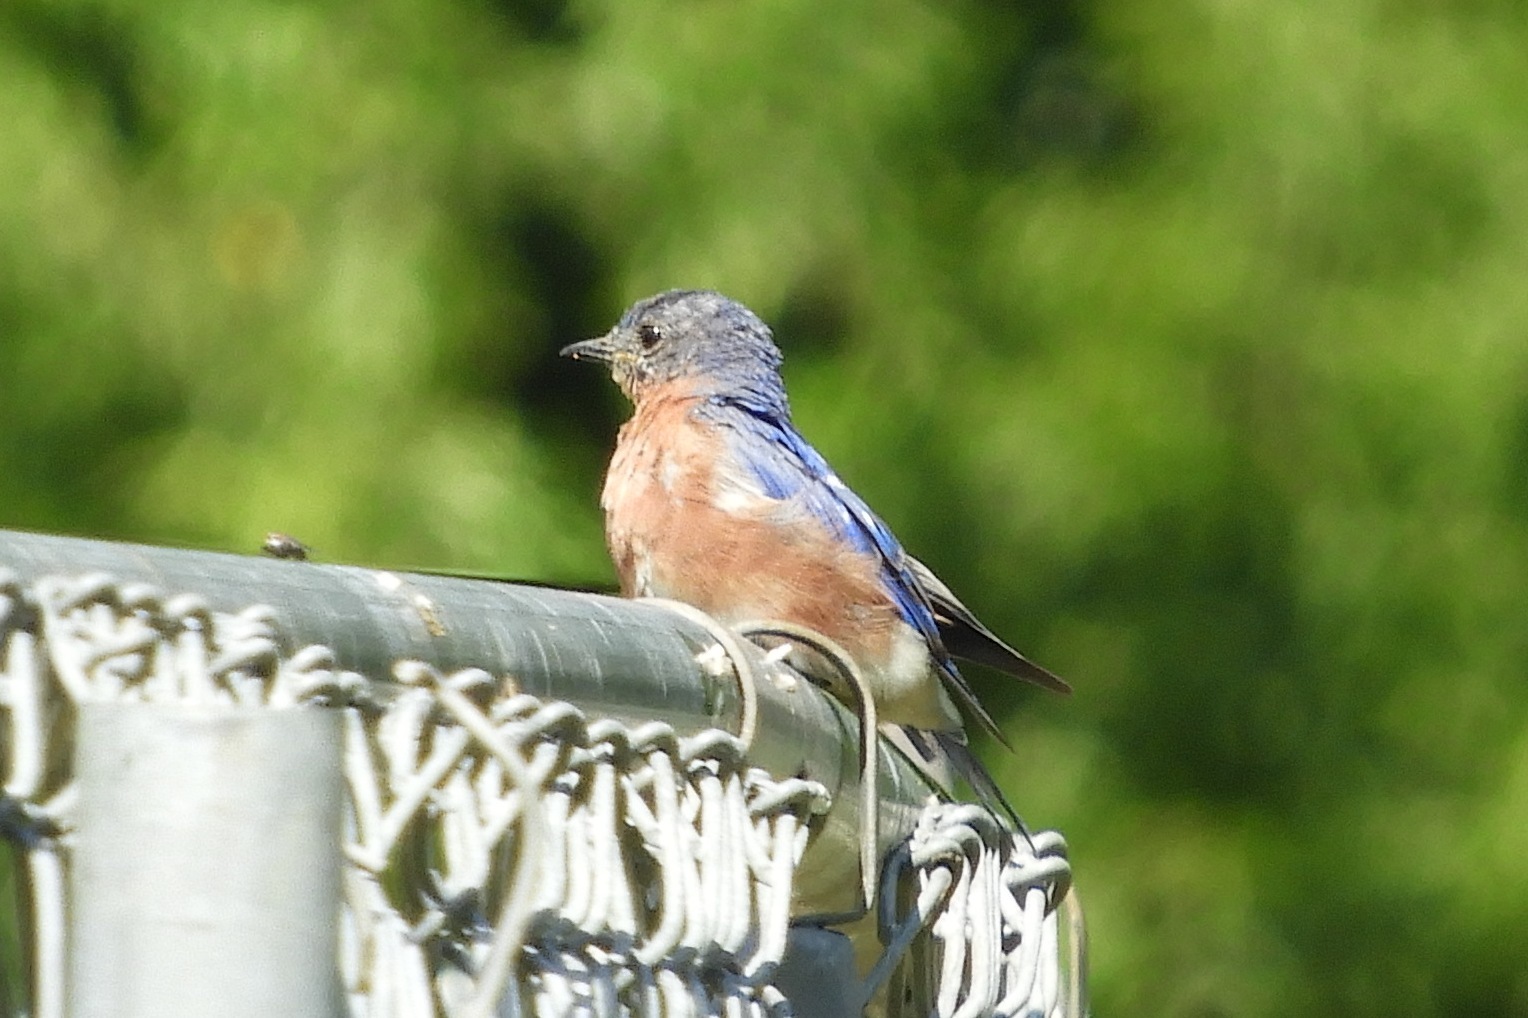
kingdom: Animalia
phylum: Chordata
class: Aves
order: Passeriformes
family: Turdidae
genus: Sialia
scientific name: Sialia sialis
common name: Eastern bluebird
